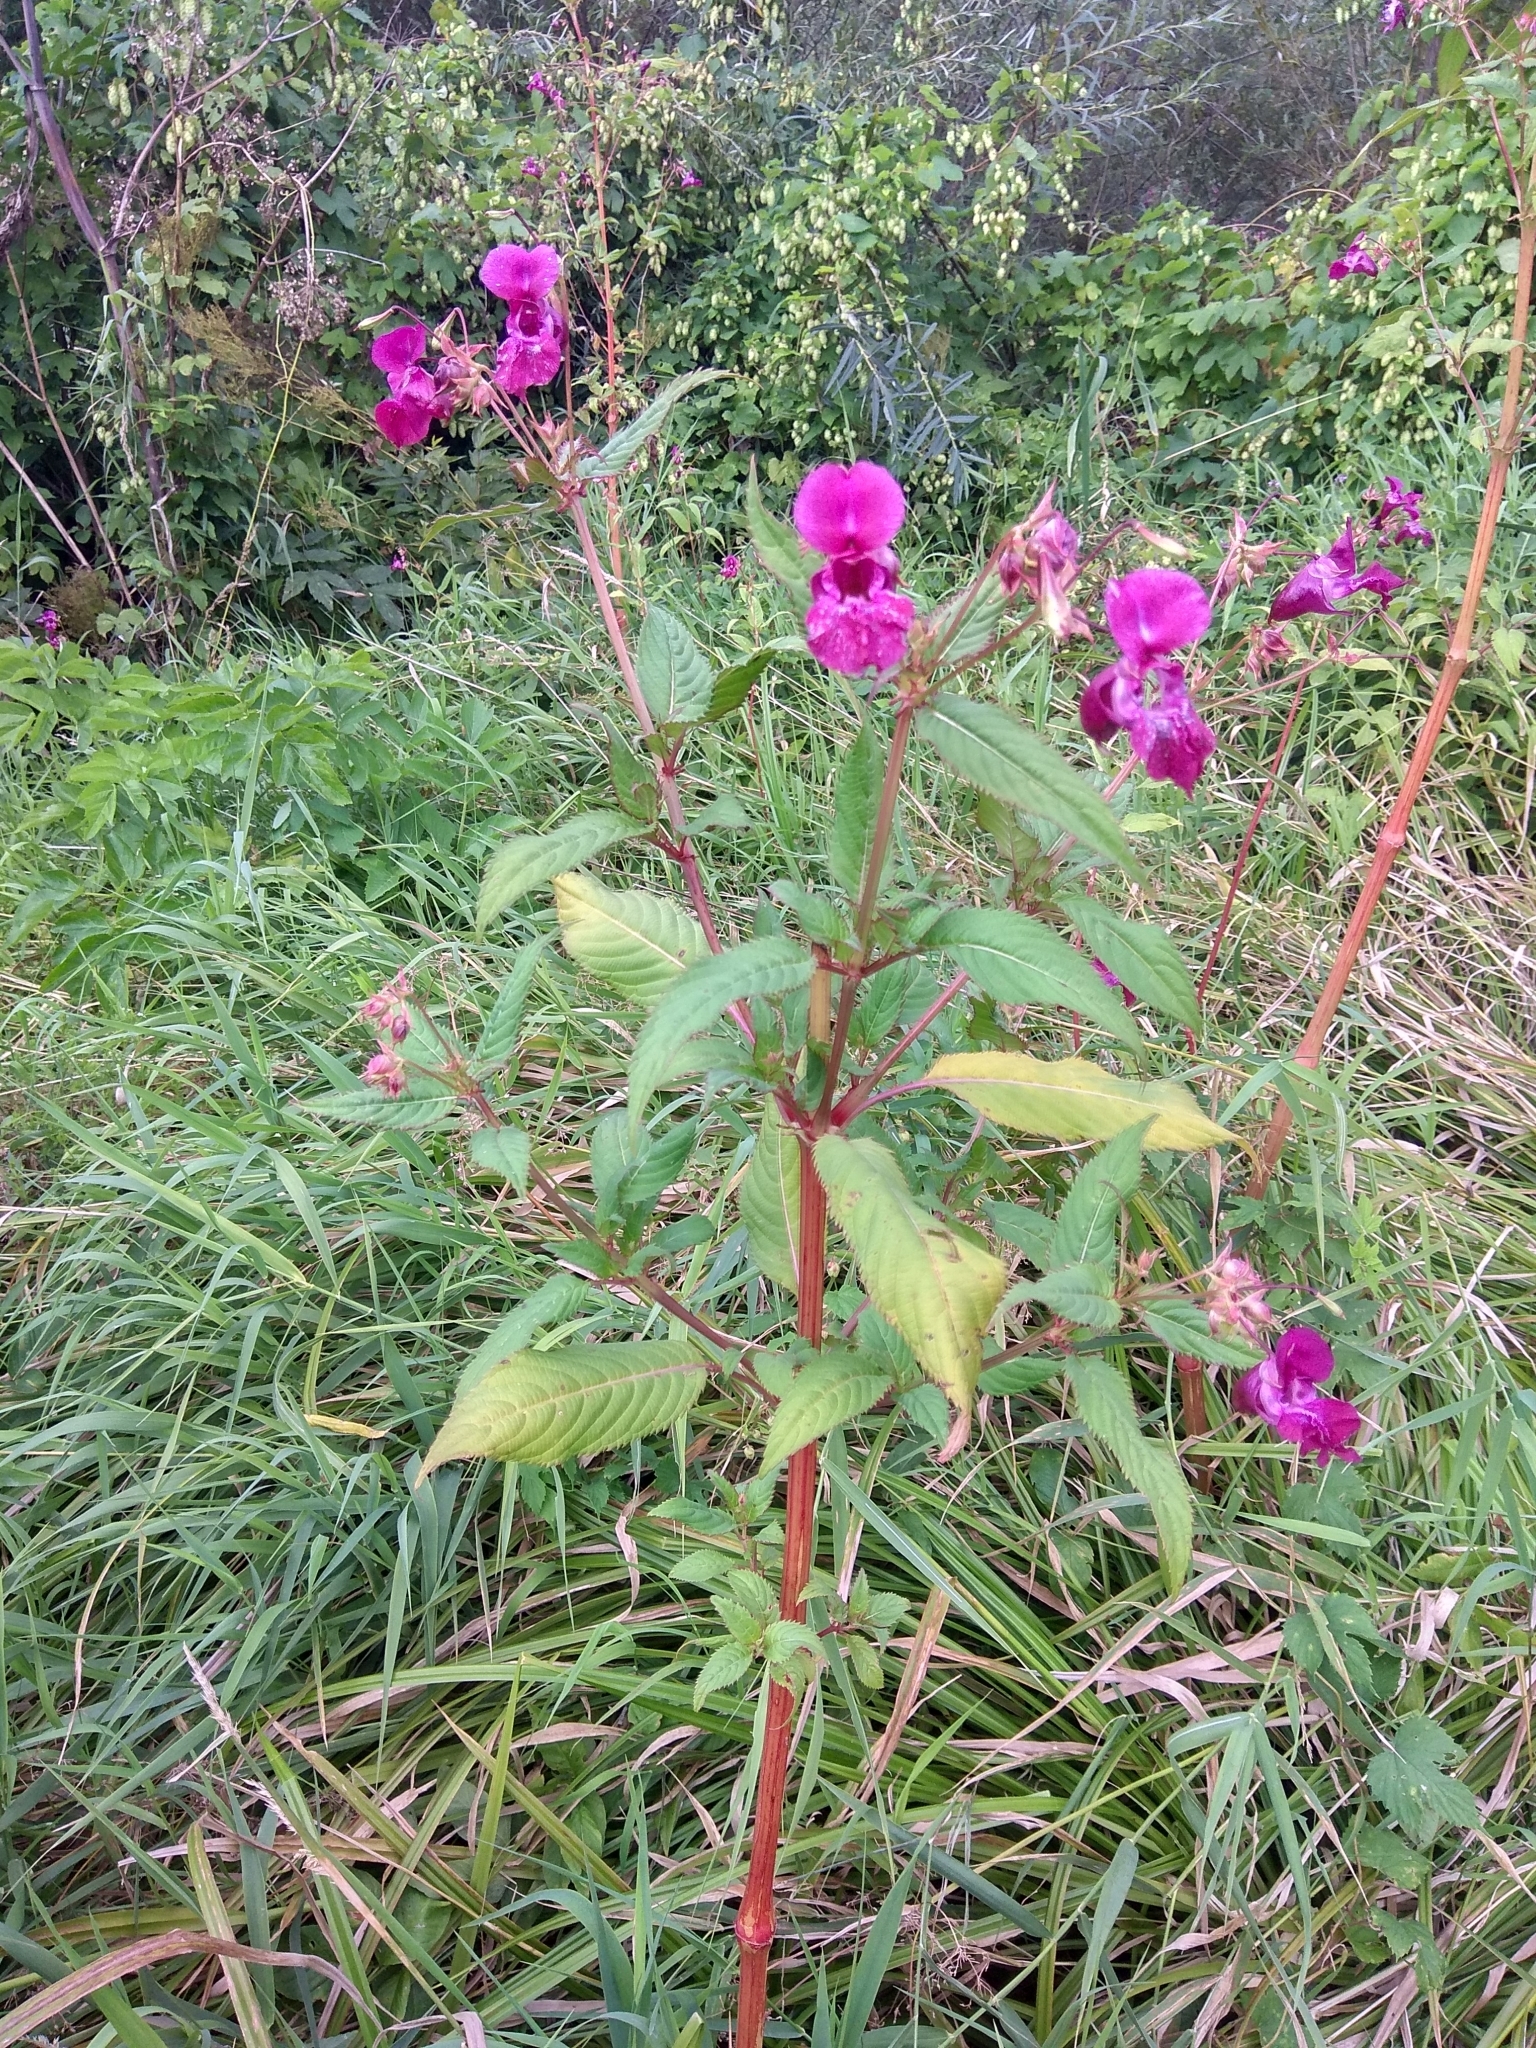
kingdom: Plantae
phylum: Tracheophyta
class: Magnoliopsida
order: Ericales
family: Balsaminaceae
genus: Impatiens
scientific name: Impatiens glandulifera
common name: Himalayan balsam
